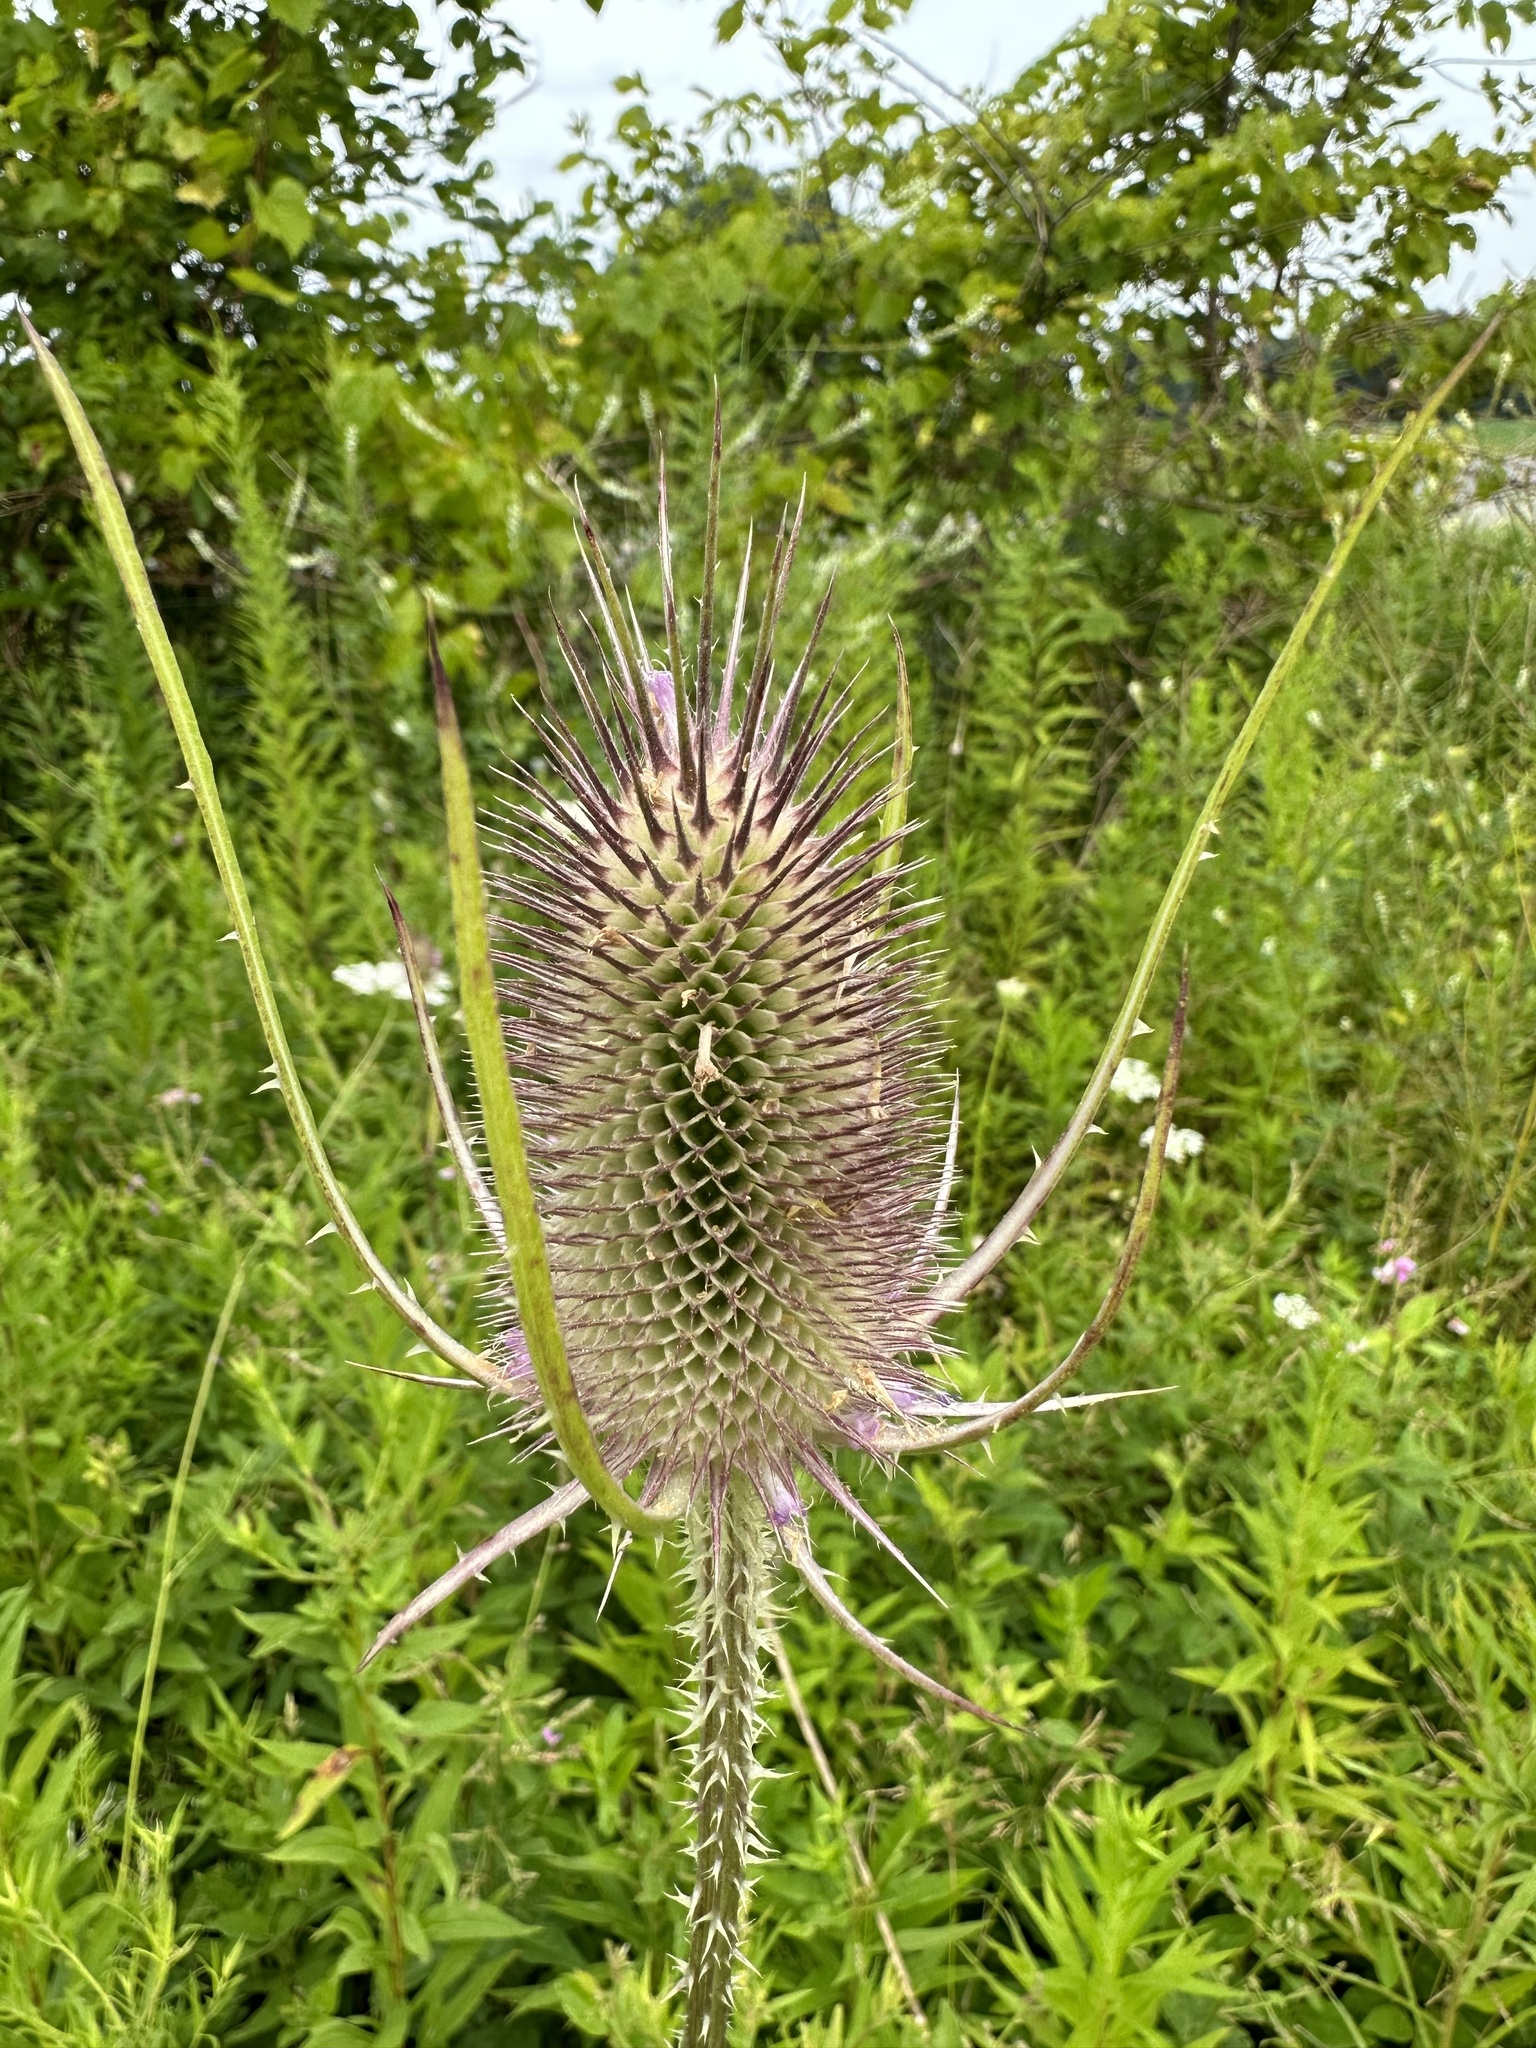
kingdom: Plantae
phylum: Tracheophyta
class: Magnoliopsida
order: Dipsacales
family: Caprifoliaceae
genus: Dipsacus
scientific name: Dipsacus fullonum
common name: Teasel
